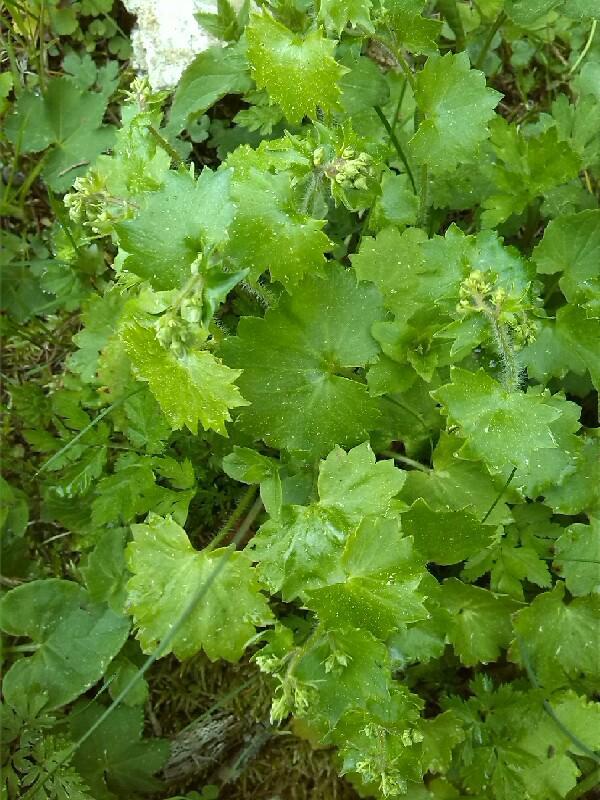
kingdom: Plantae
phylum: Tracheophyta
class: Magnoliopsida
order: Saxifragales
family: Saxifragaceae
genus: Saxifraga
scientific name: Saxifraga rotundifolia
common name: Round-leaved saxifrage
